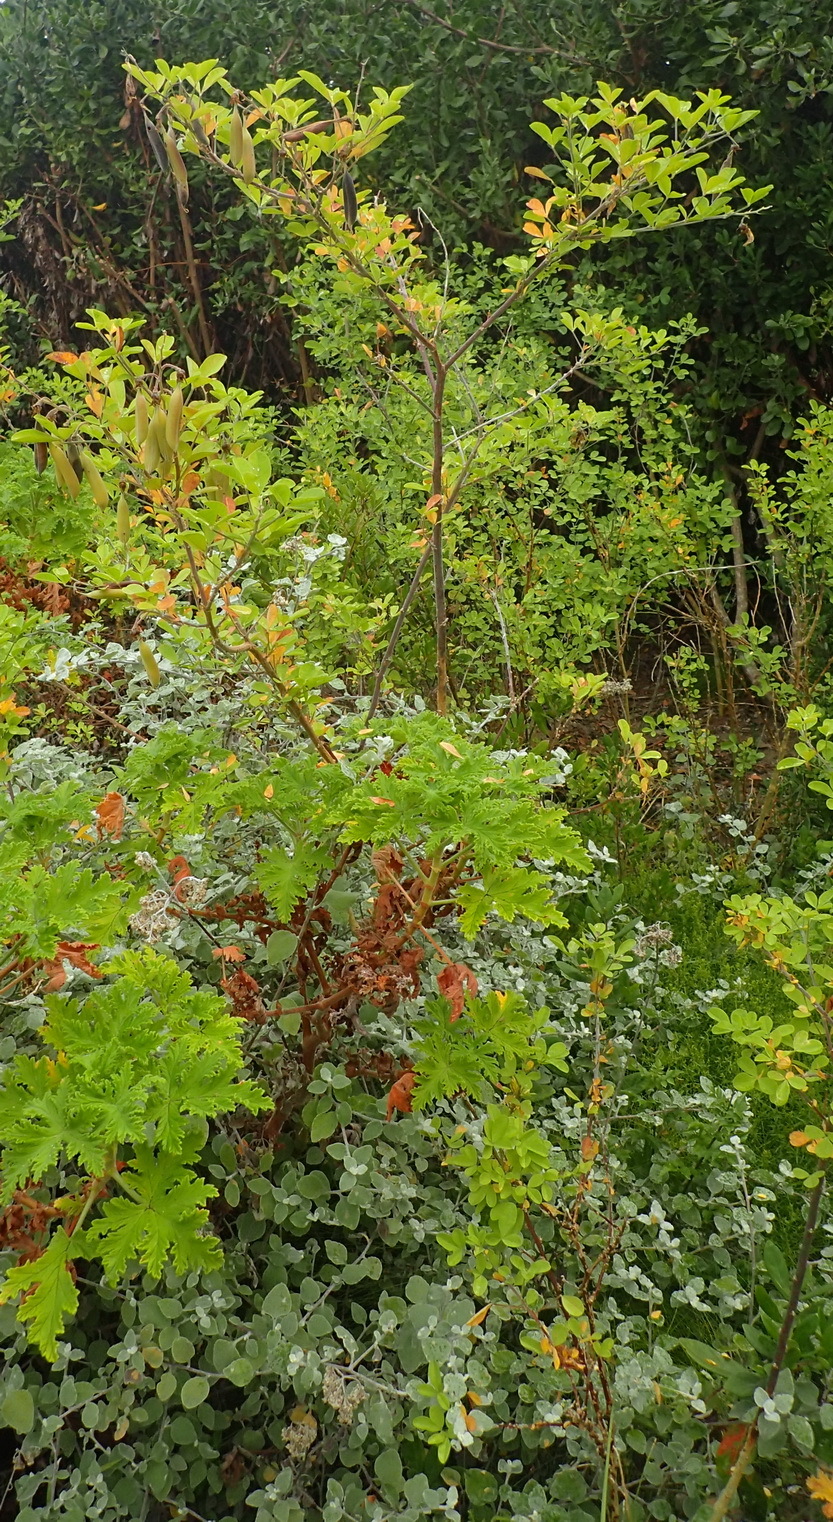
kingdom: Plantae
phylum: Tracheophyta
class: Magnoliopsida
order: Fabales
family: Fabaceae
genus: Crotalaria
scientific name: Crotalaria capensis
